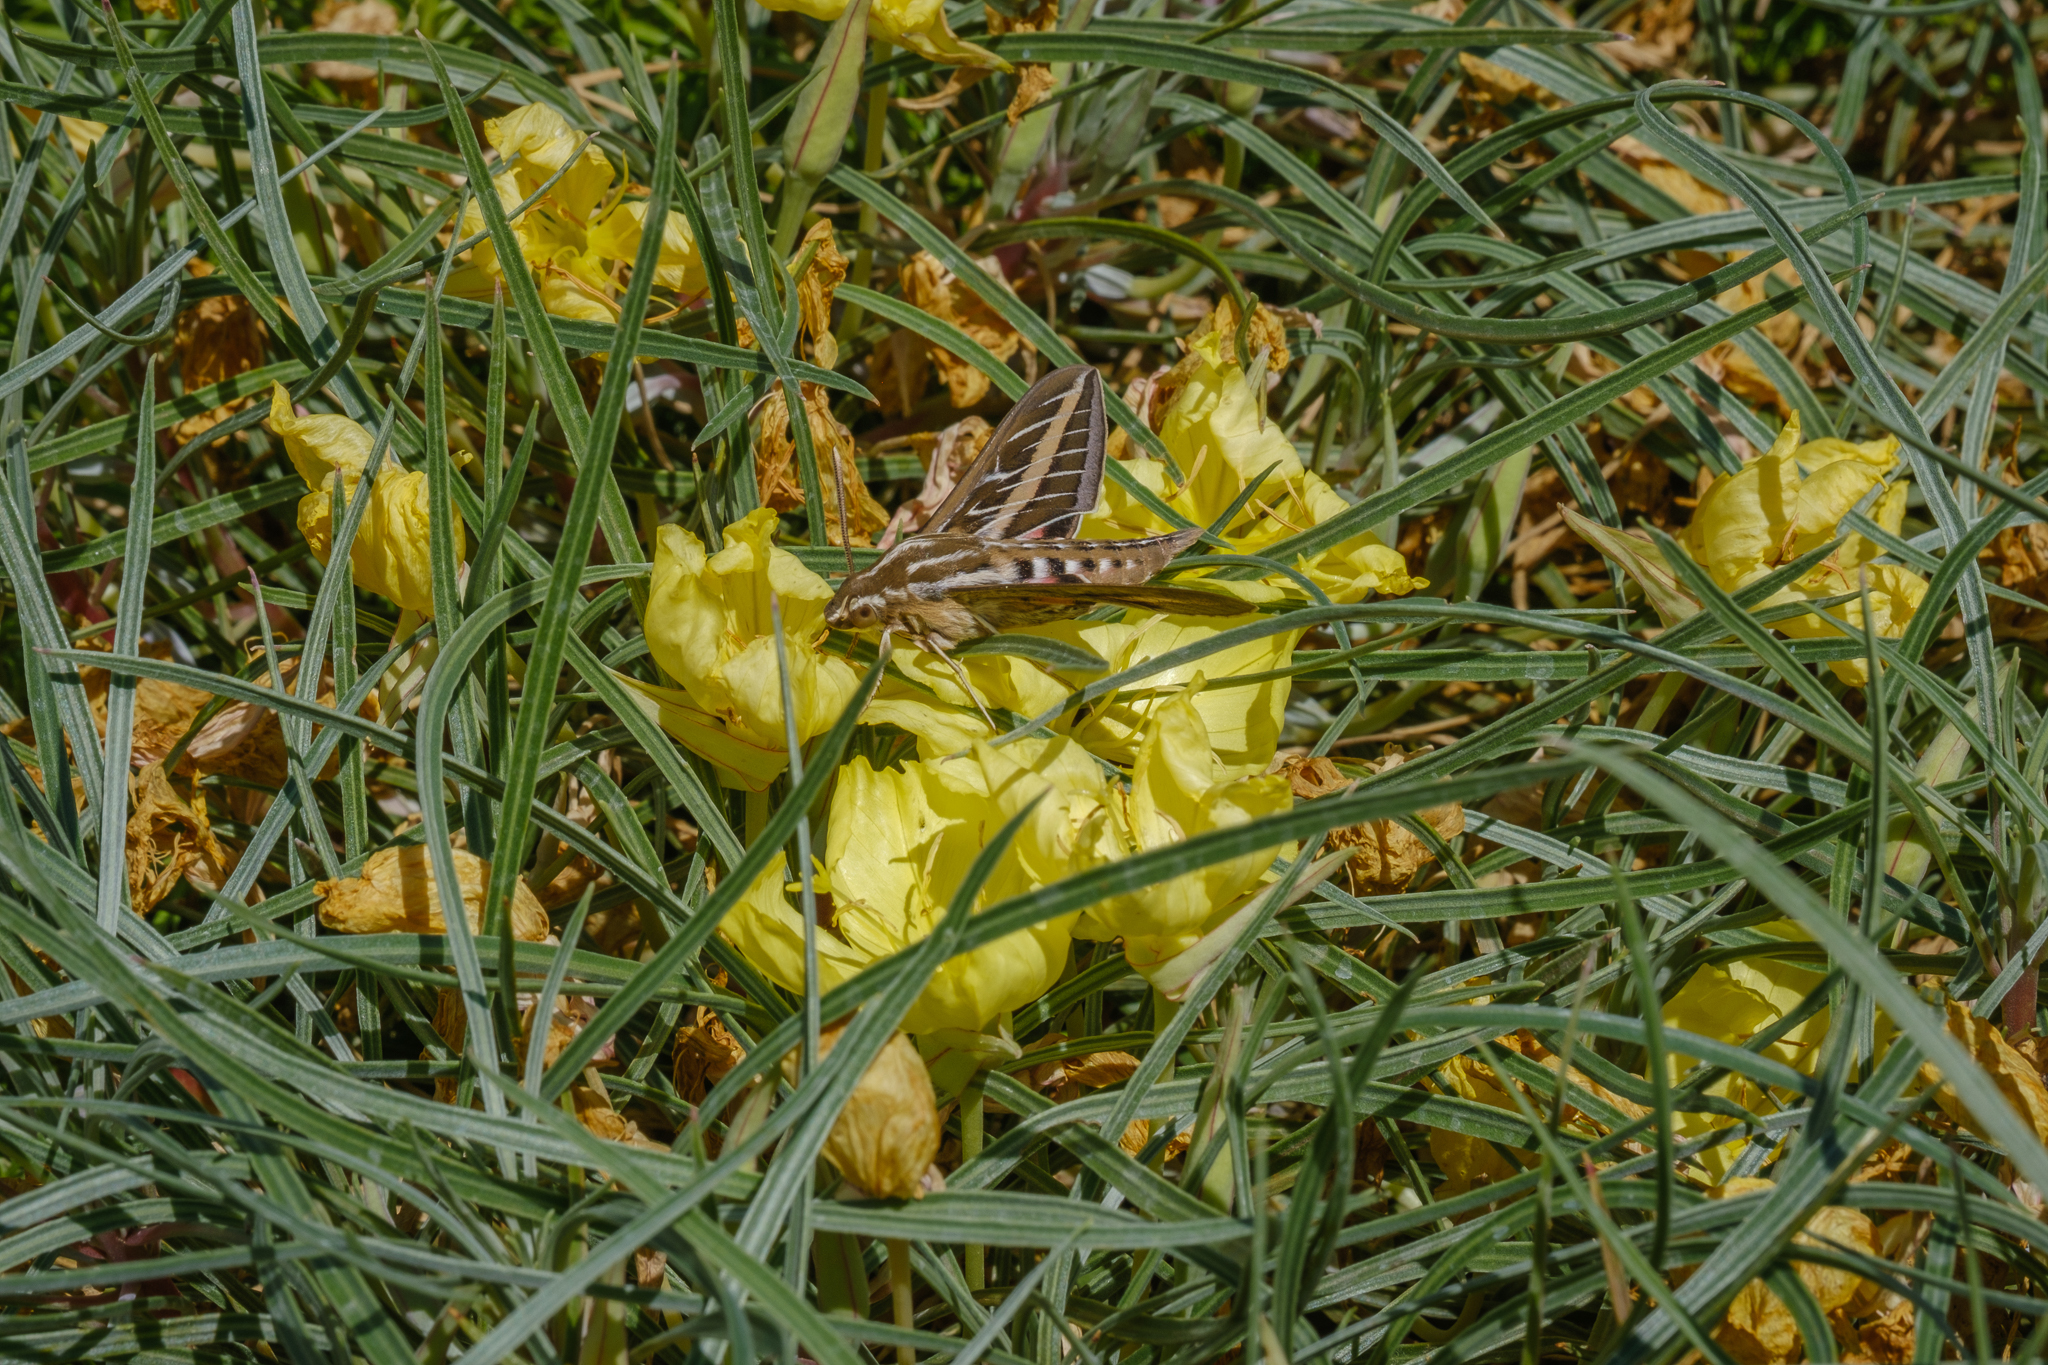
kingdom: Animalia
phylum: Arthropoda
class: Insecta
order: Lepidoptera
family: Sphingidae
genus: Hyles
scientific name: Hyles lineata
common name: White-lined sphinx
